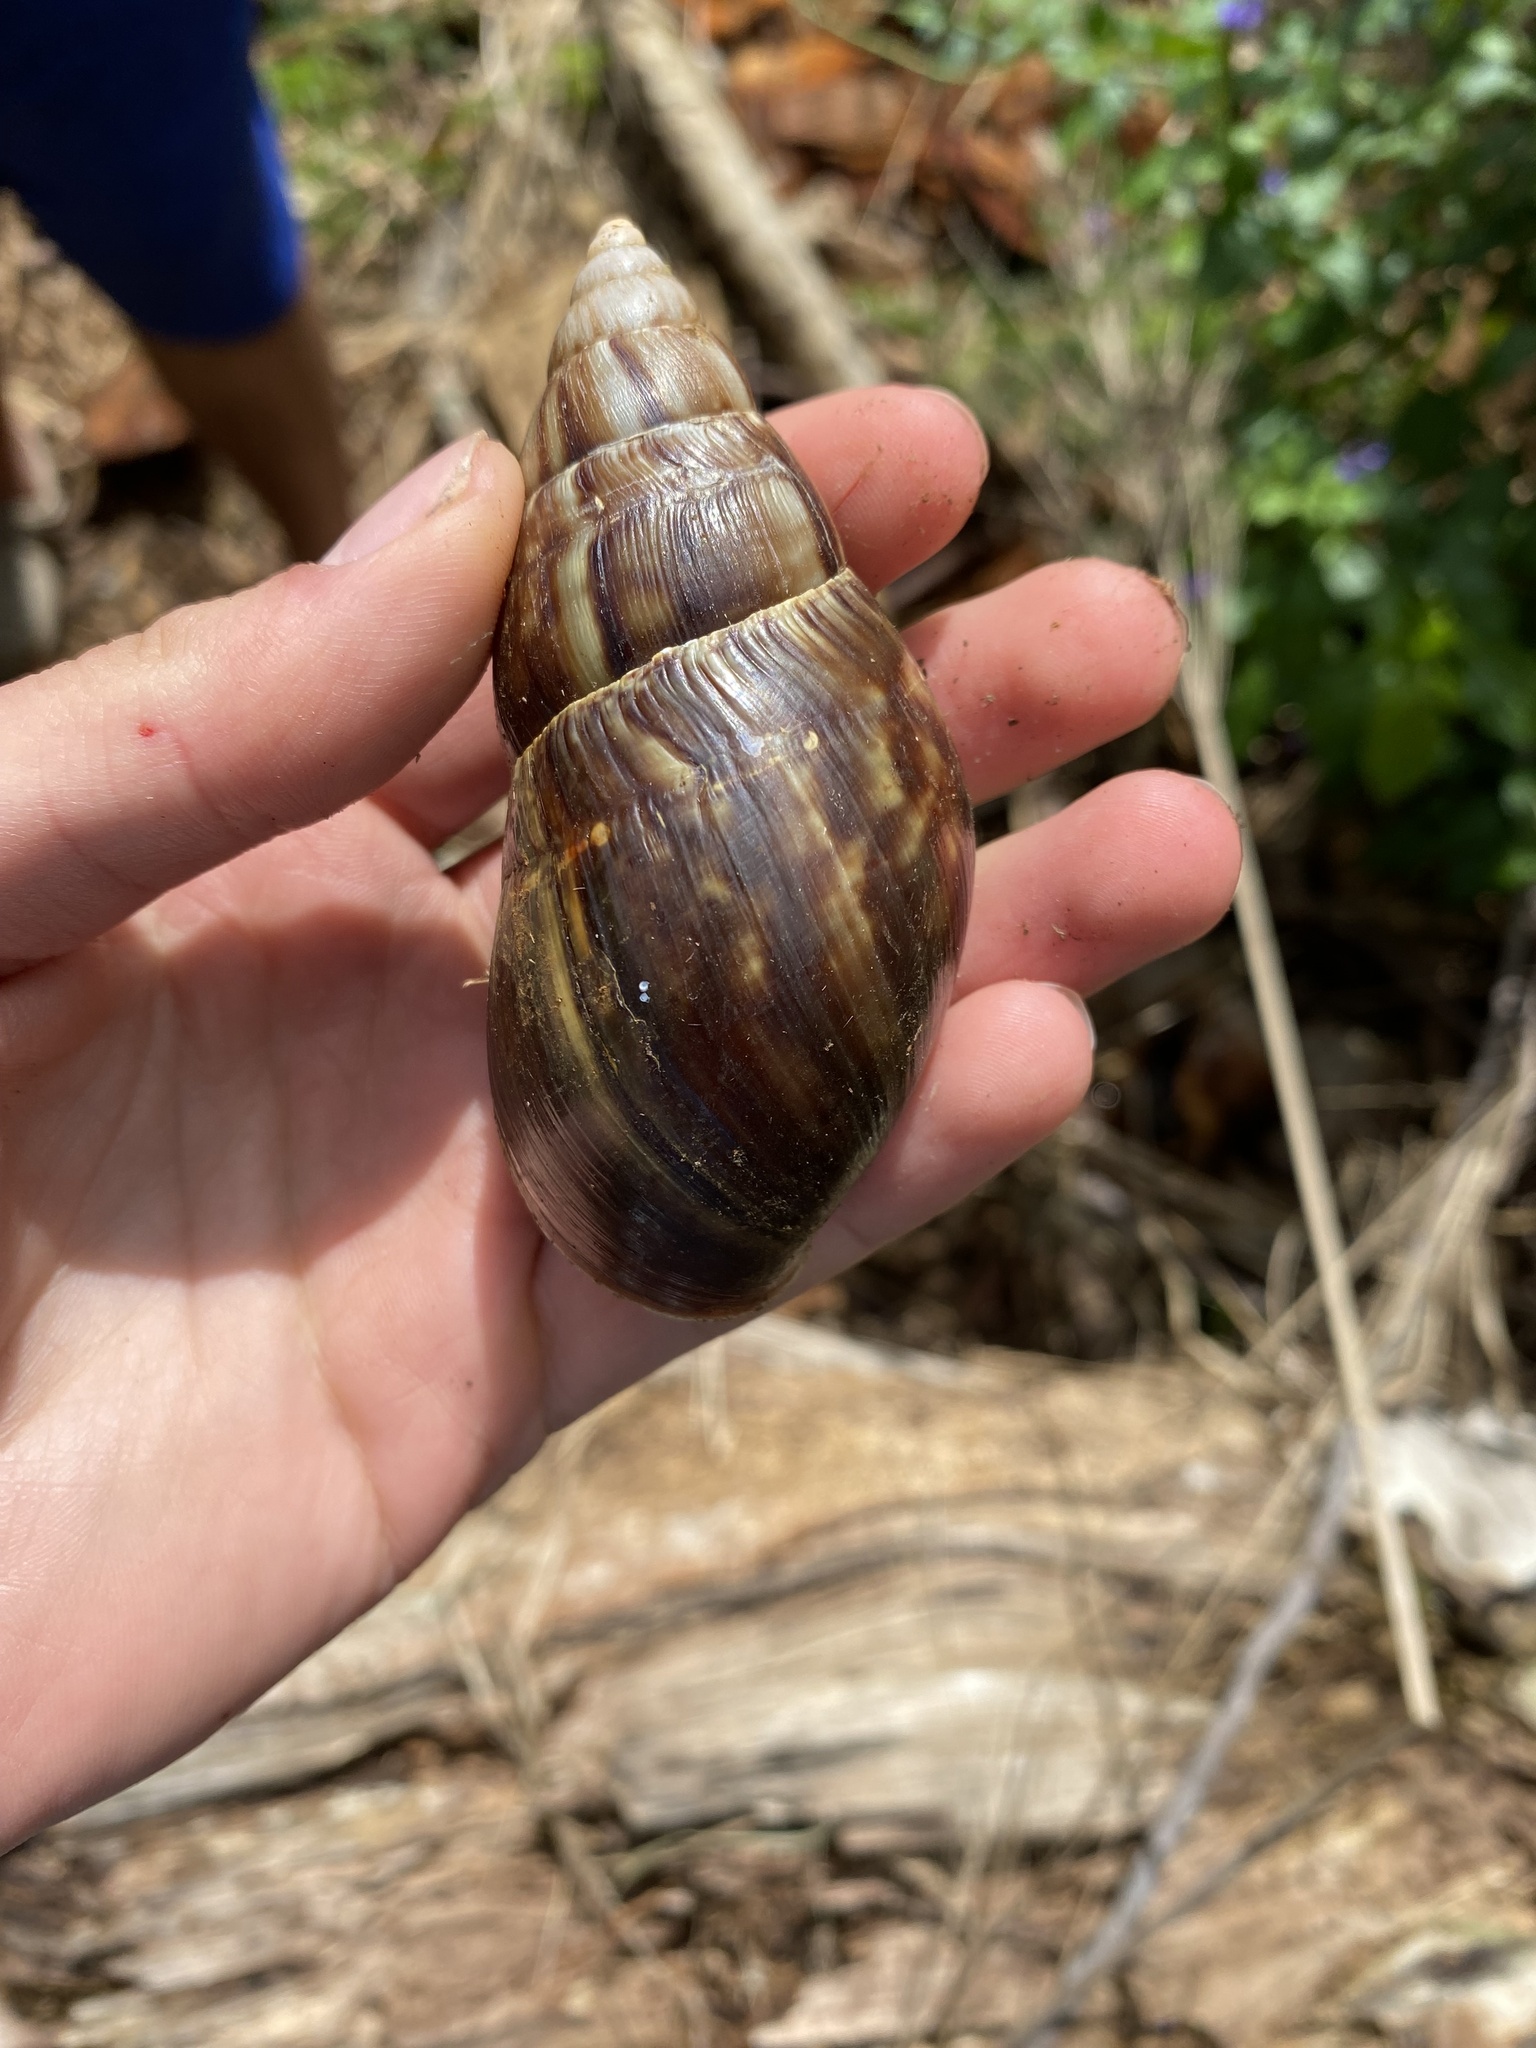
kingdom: Animalia
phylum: Mollusca
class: Gastropoda
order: Stylommatophora
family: Achatinidae
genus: Lissachatina
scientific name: Lissachatina fulica
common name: Giant african snail
